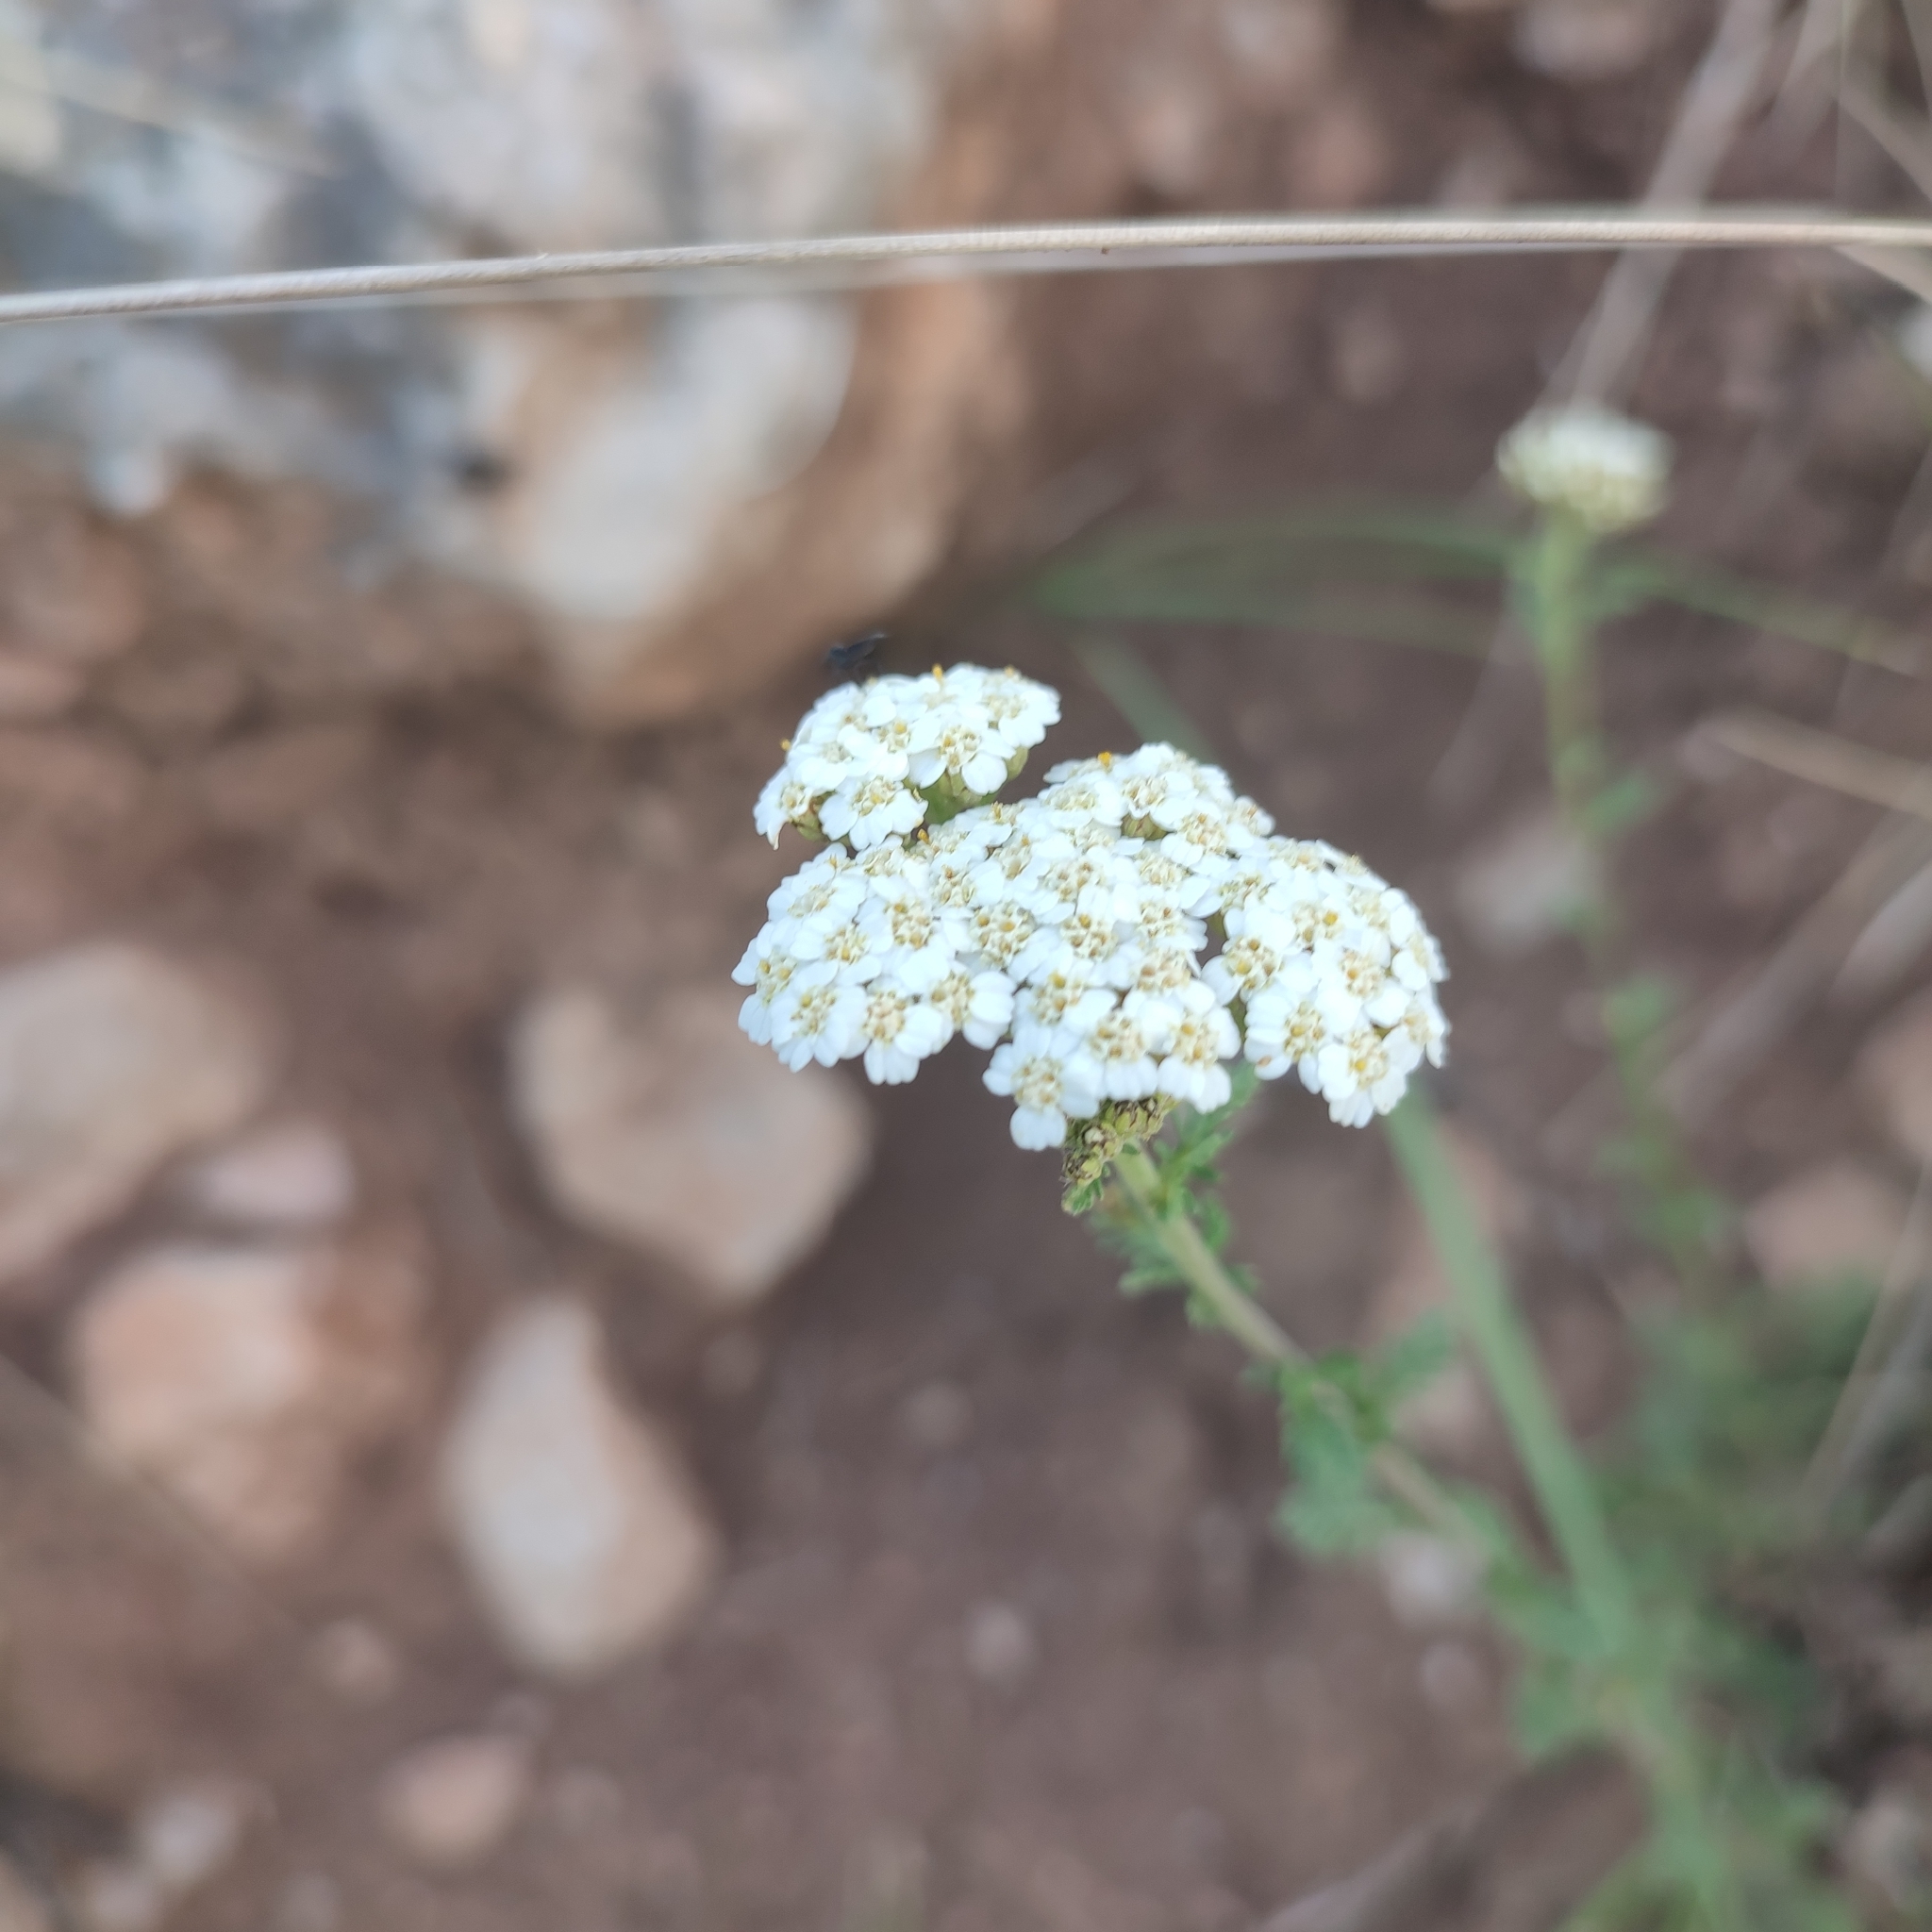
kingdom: Plantae
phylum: Tracheophyta
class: Magnoliopsida
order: Asterales
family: Asteraceae
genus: Achillea
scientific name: Achillea millefolium
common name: Yarrow
